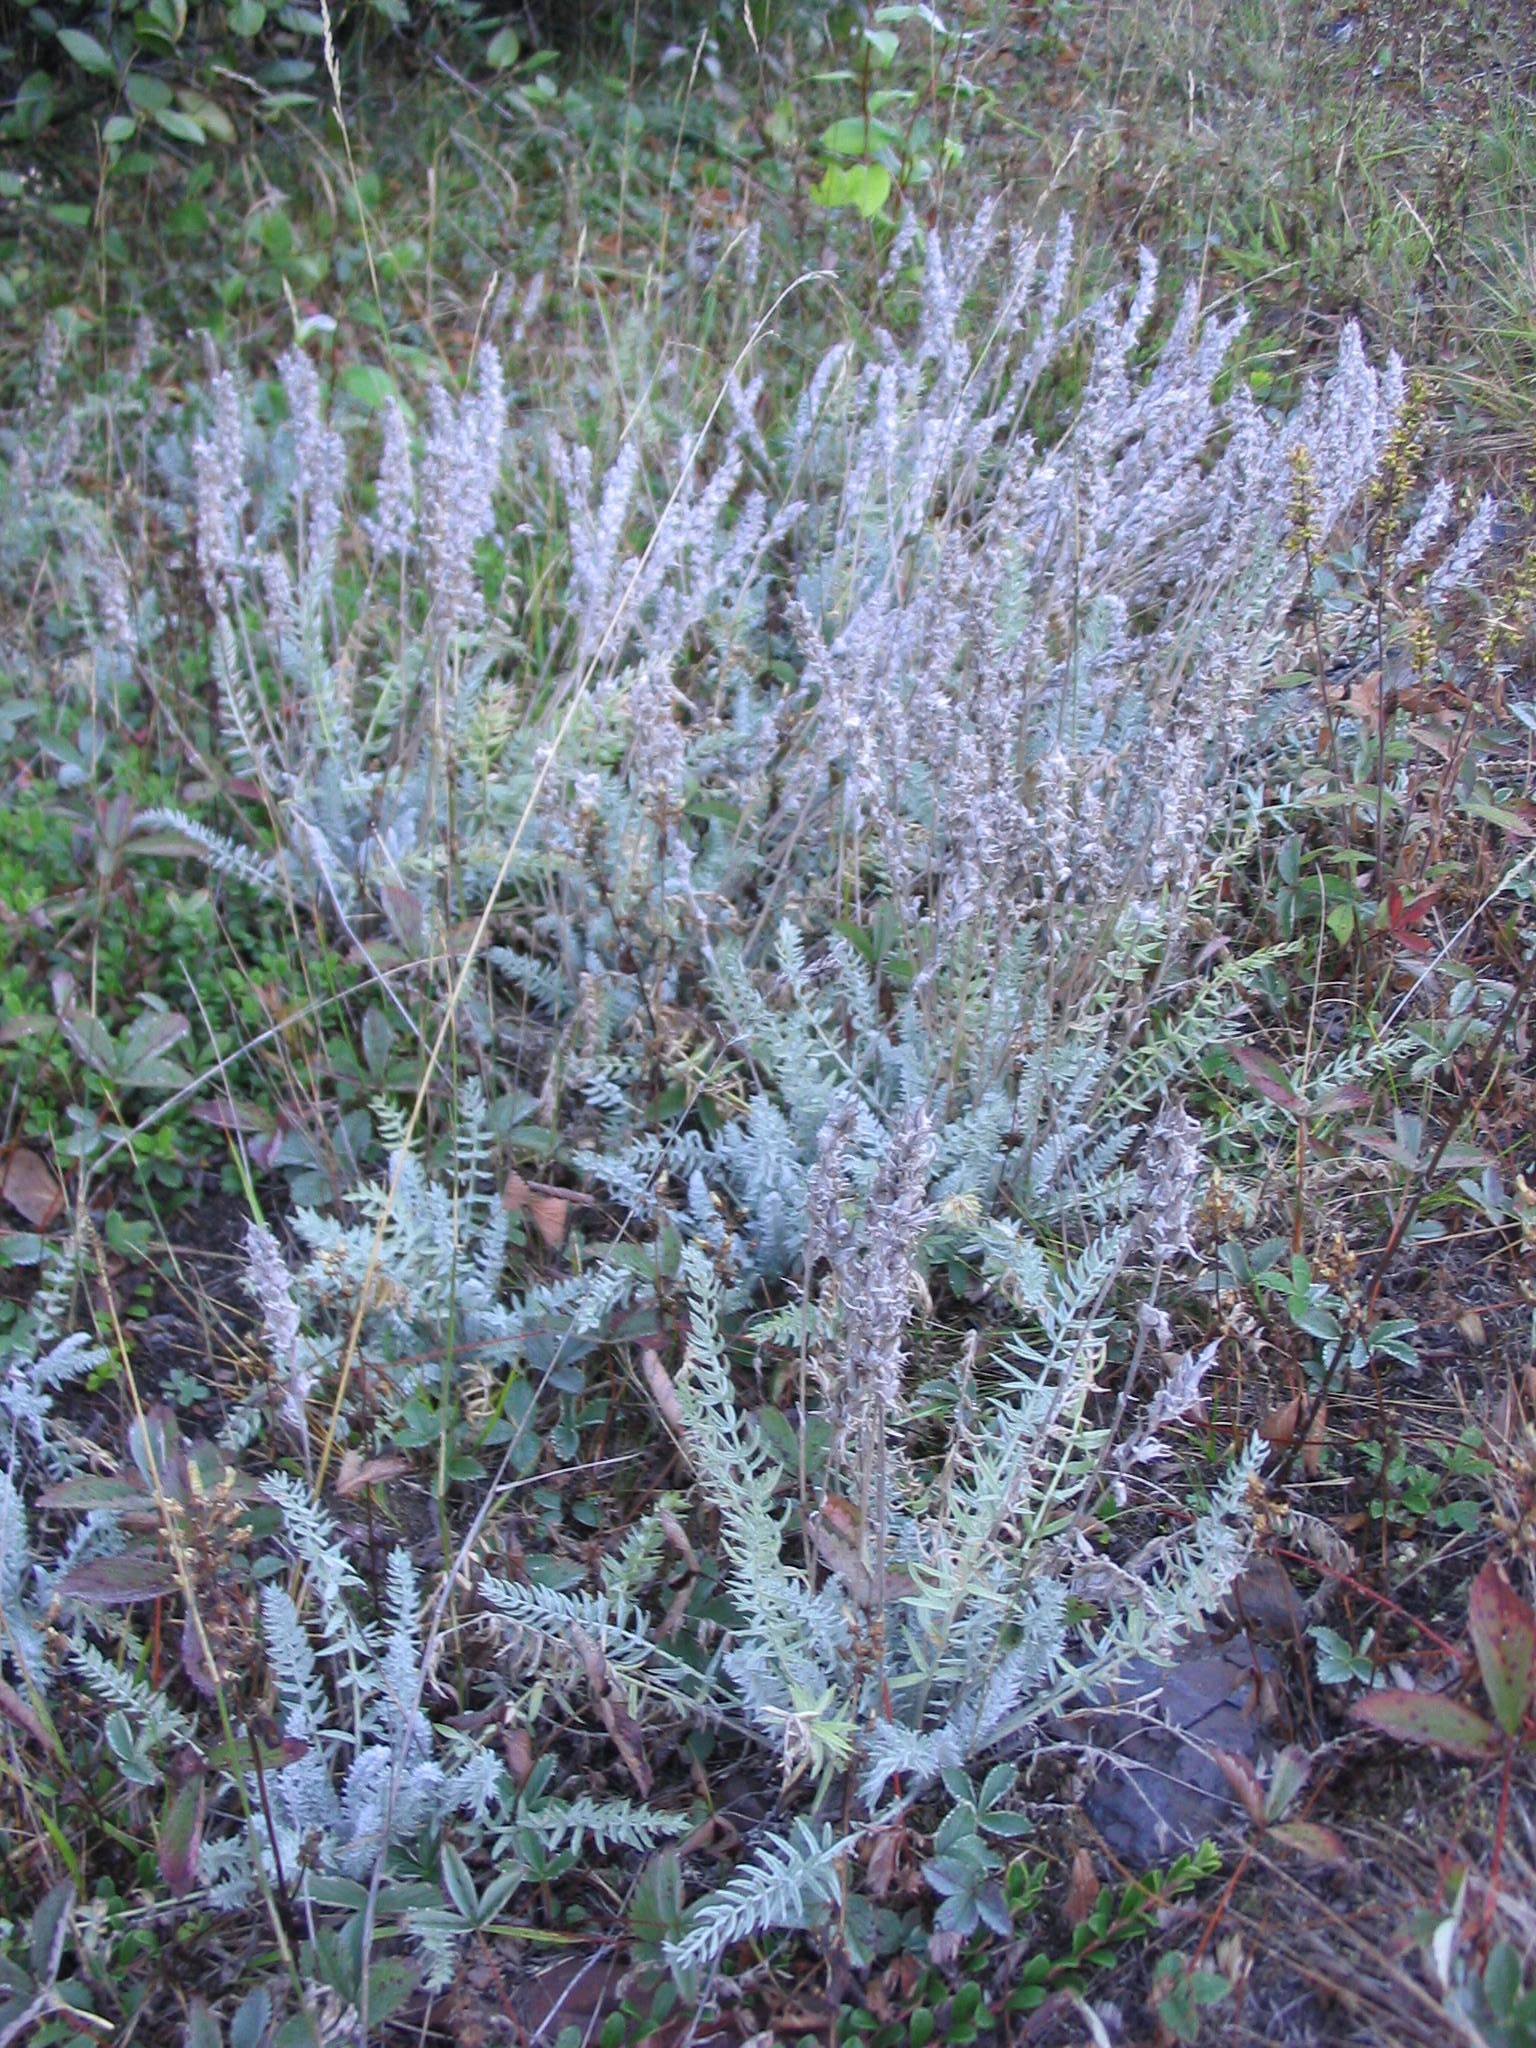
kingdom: Plantae
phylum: Tracheophyta
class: Magnoliopsida
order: Fabales
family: Fabaceae
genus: Oxytropis
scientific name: Oxytropis splendens
